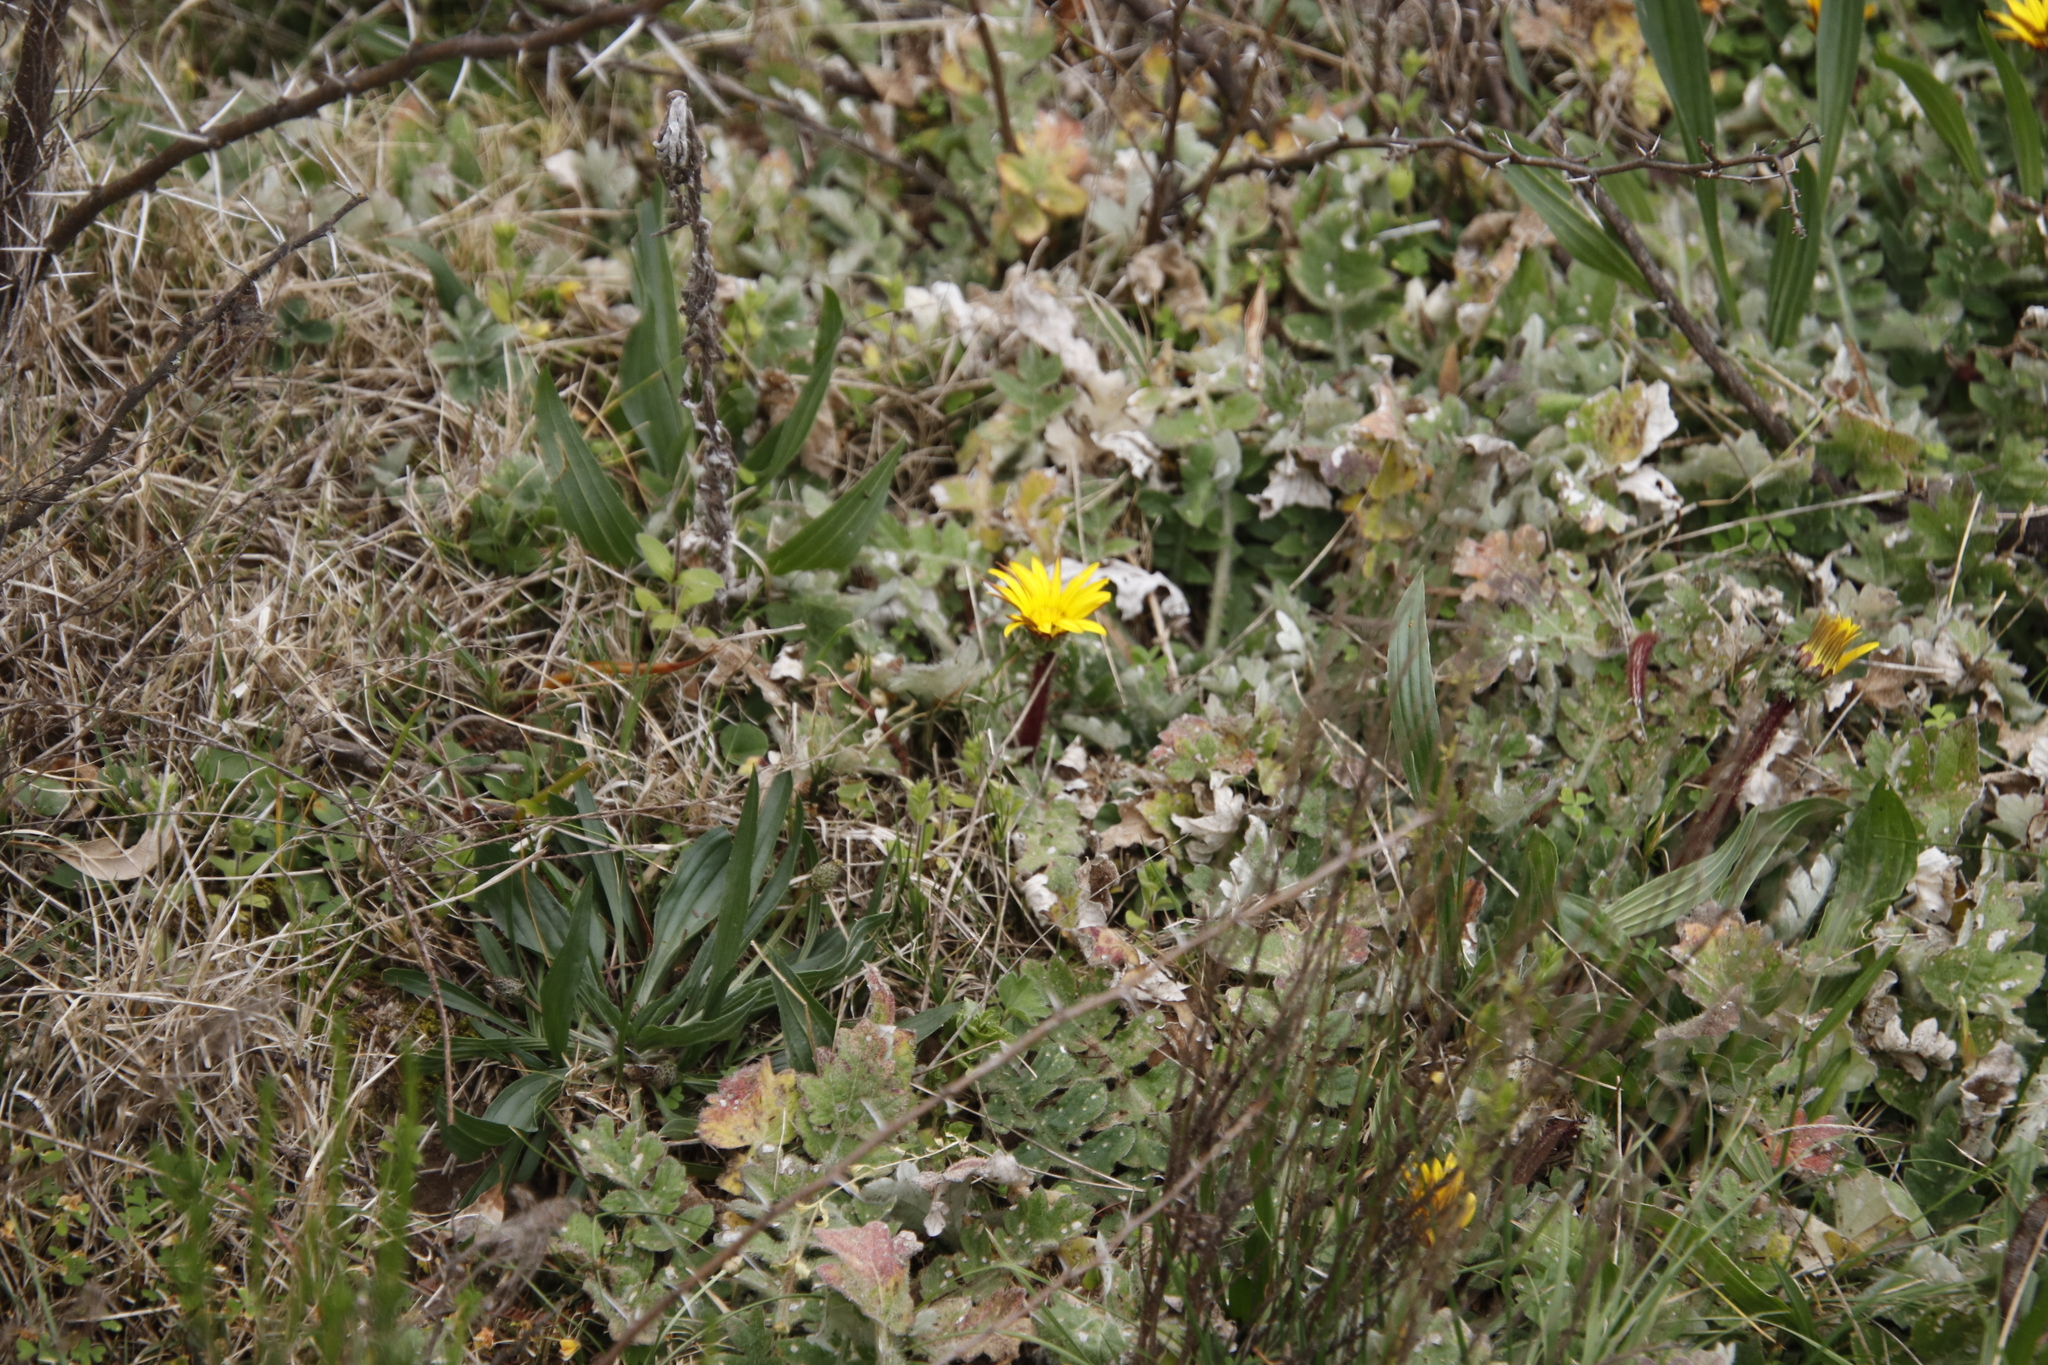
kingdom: Plantae
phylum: Tracheophyta
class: Magnoliopsida
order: Asterales
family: Asteraceae
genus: Arctotheca
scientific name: Arctotheca prostrata
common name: Capeweed
